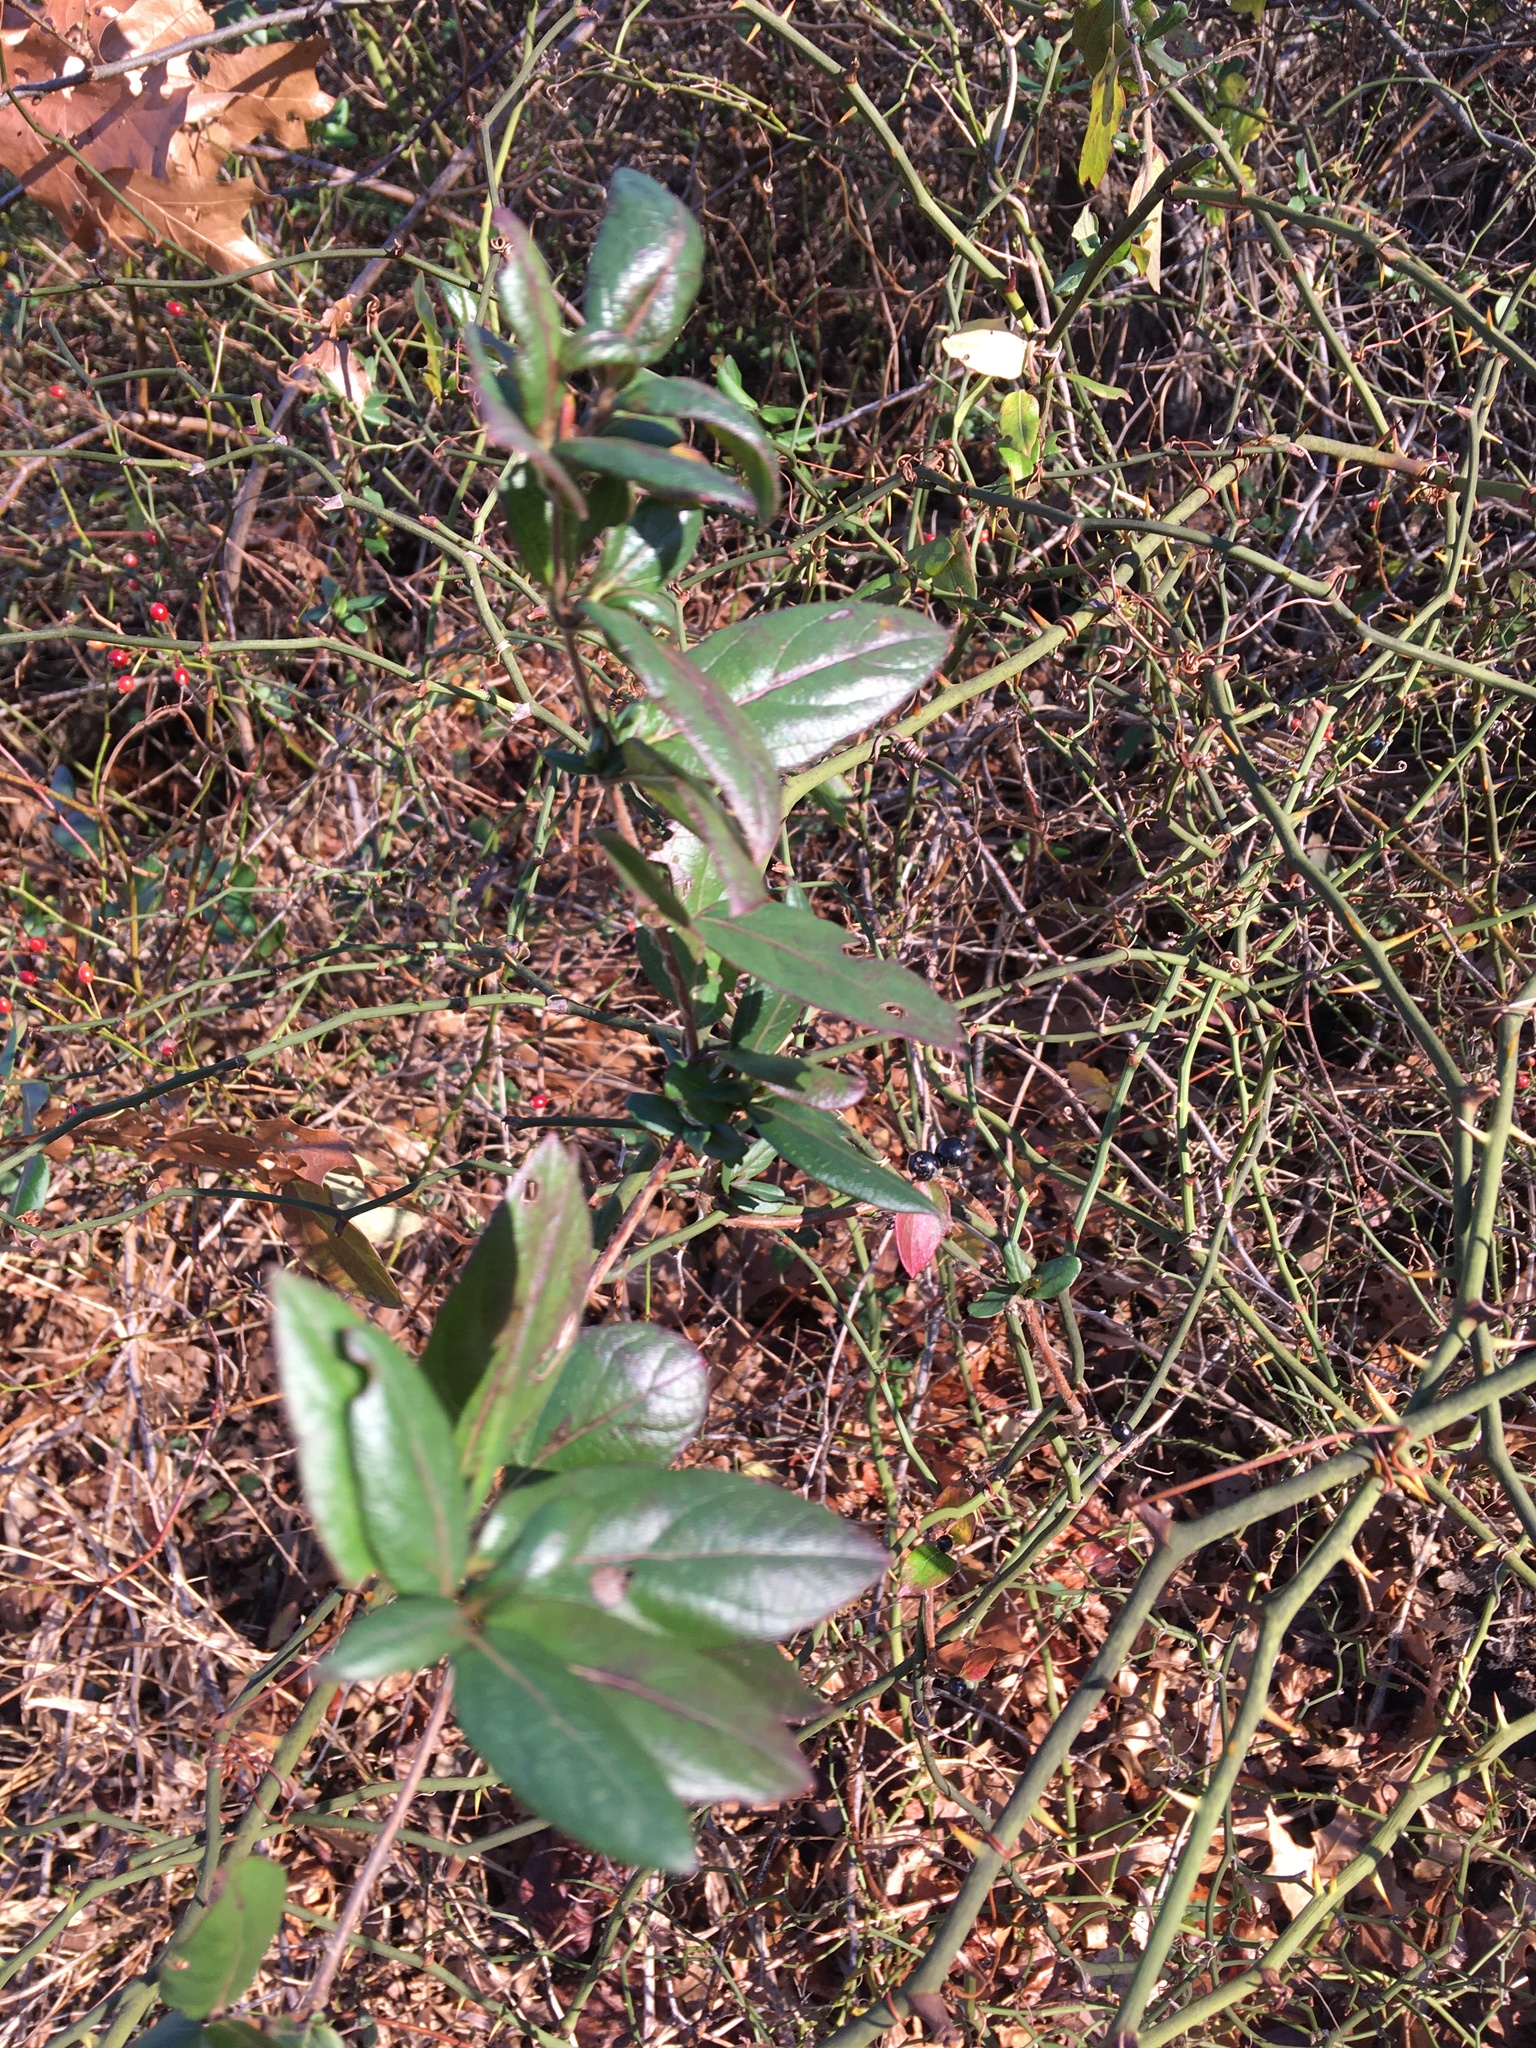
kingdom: Plantae
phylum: Tracheophyta
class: Magnoliopsida
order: Dipsacales
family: Caprifoliaceae
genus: Lonicera
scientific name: Lonicera japonica
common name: Japanese honeysuckle
